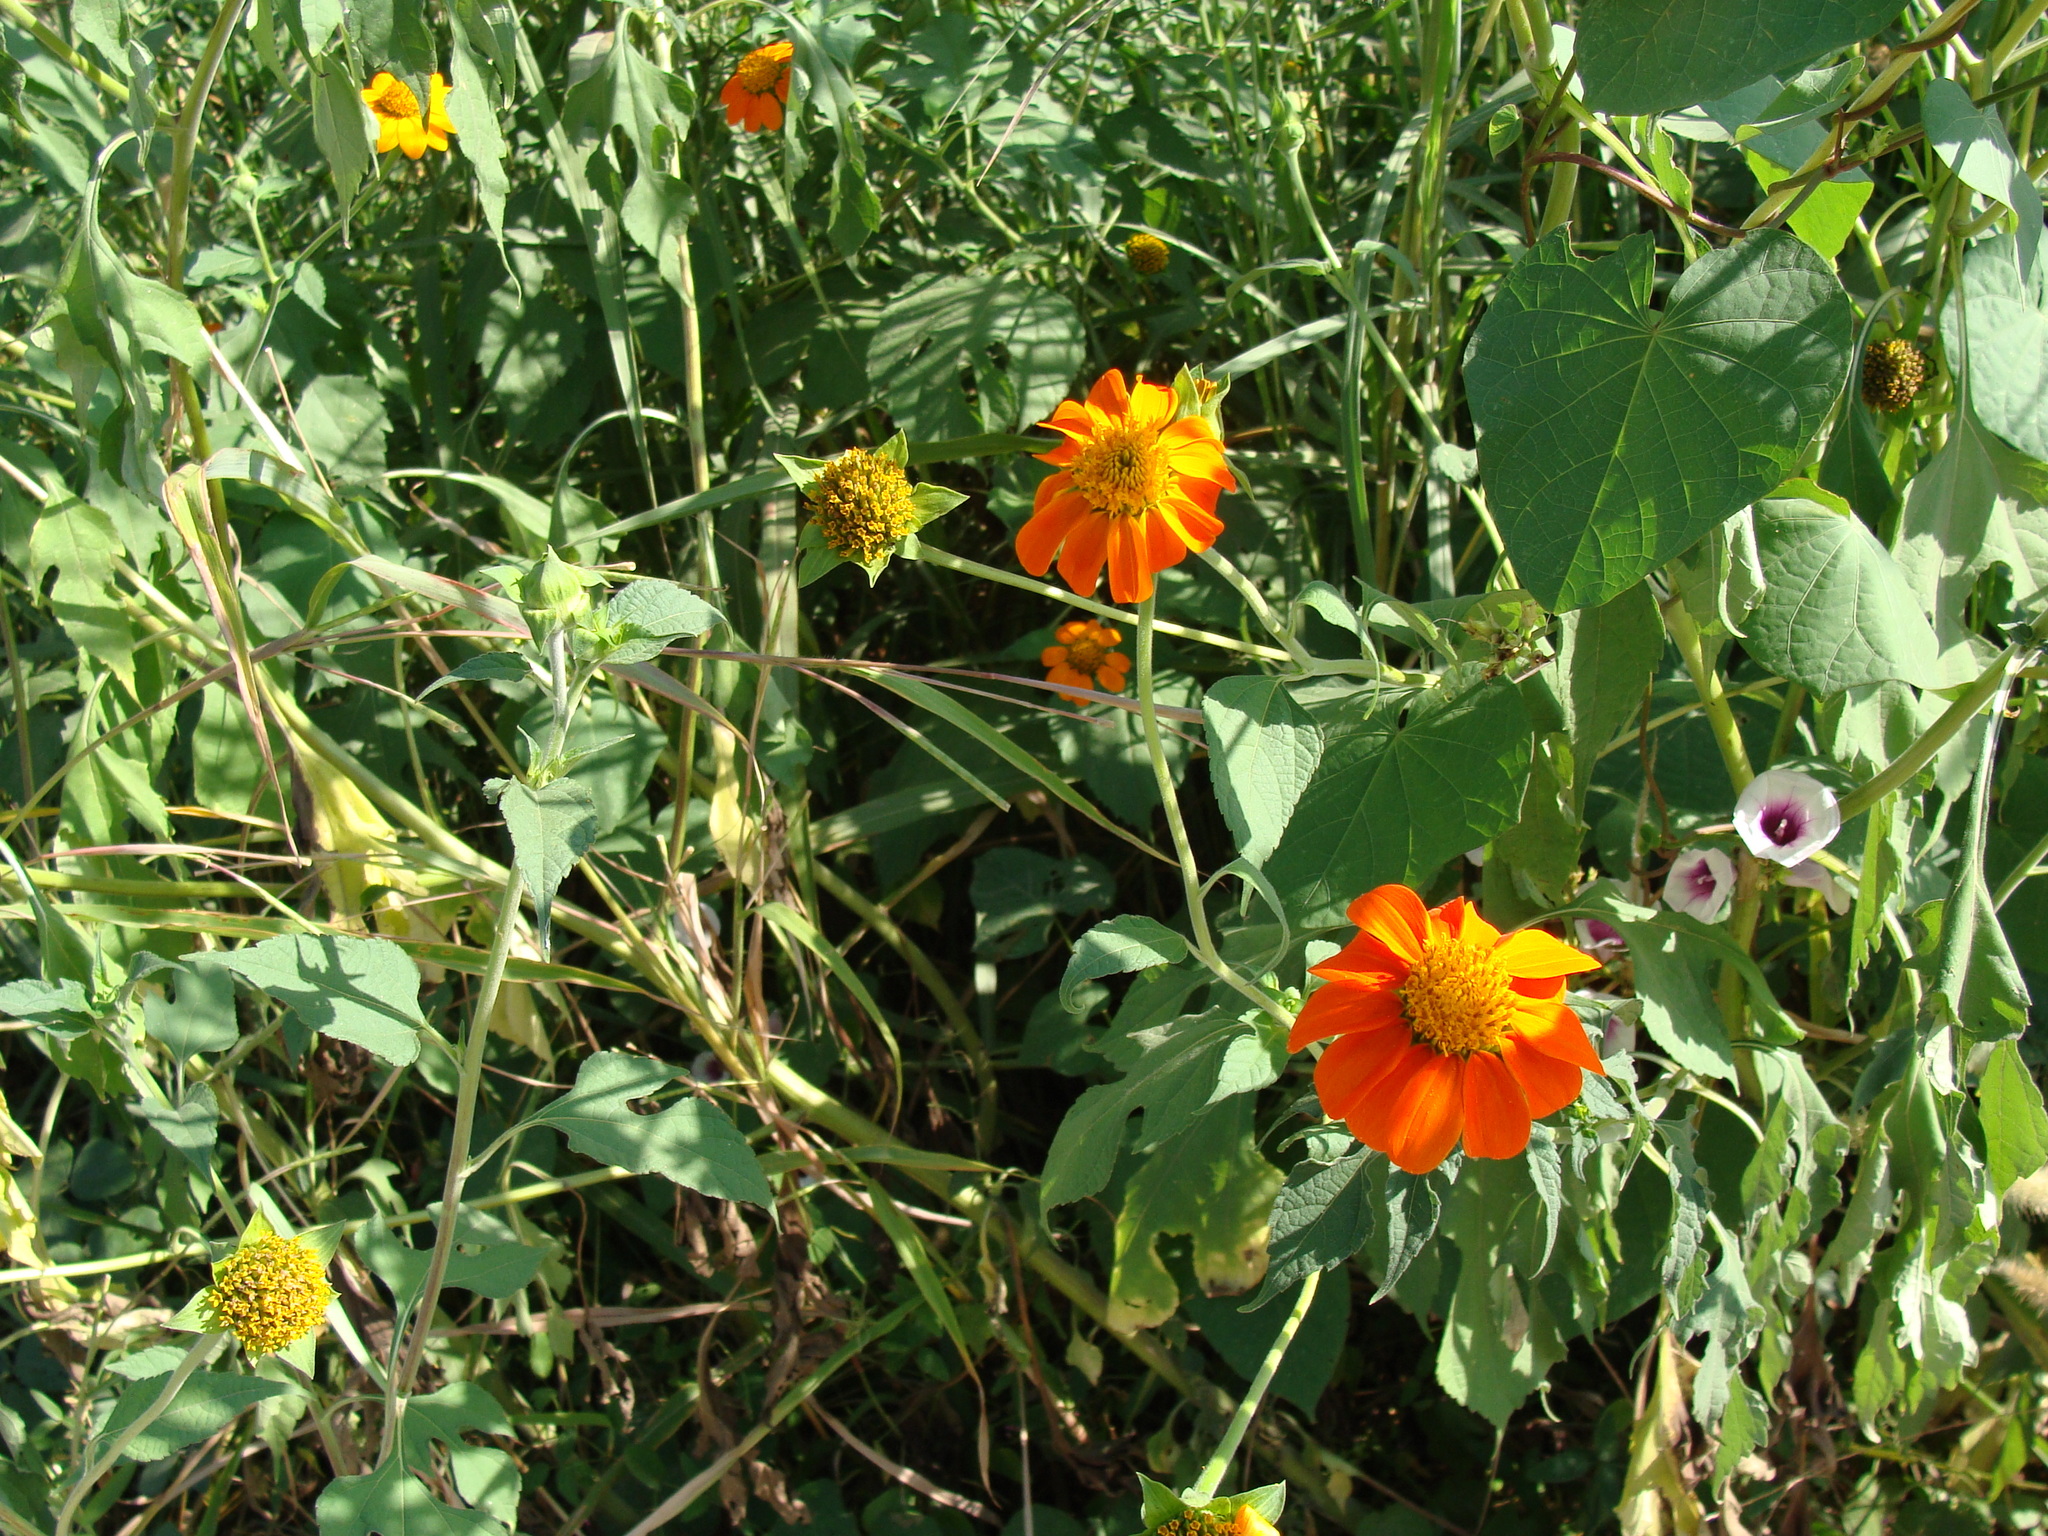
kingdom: Plantae
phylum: Tracheophyta
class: Magnoliopsida
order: Asterales
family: Asteraceae
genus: Tithonia
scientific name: Tithonia rotundifolia
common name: Sunflower
